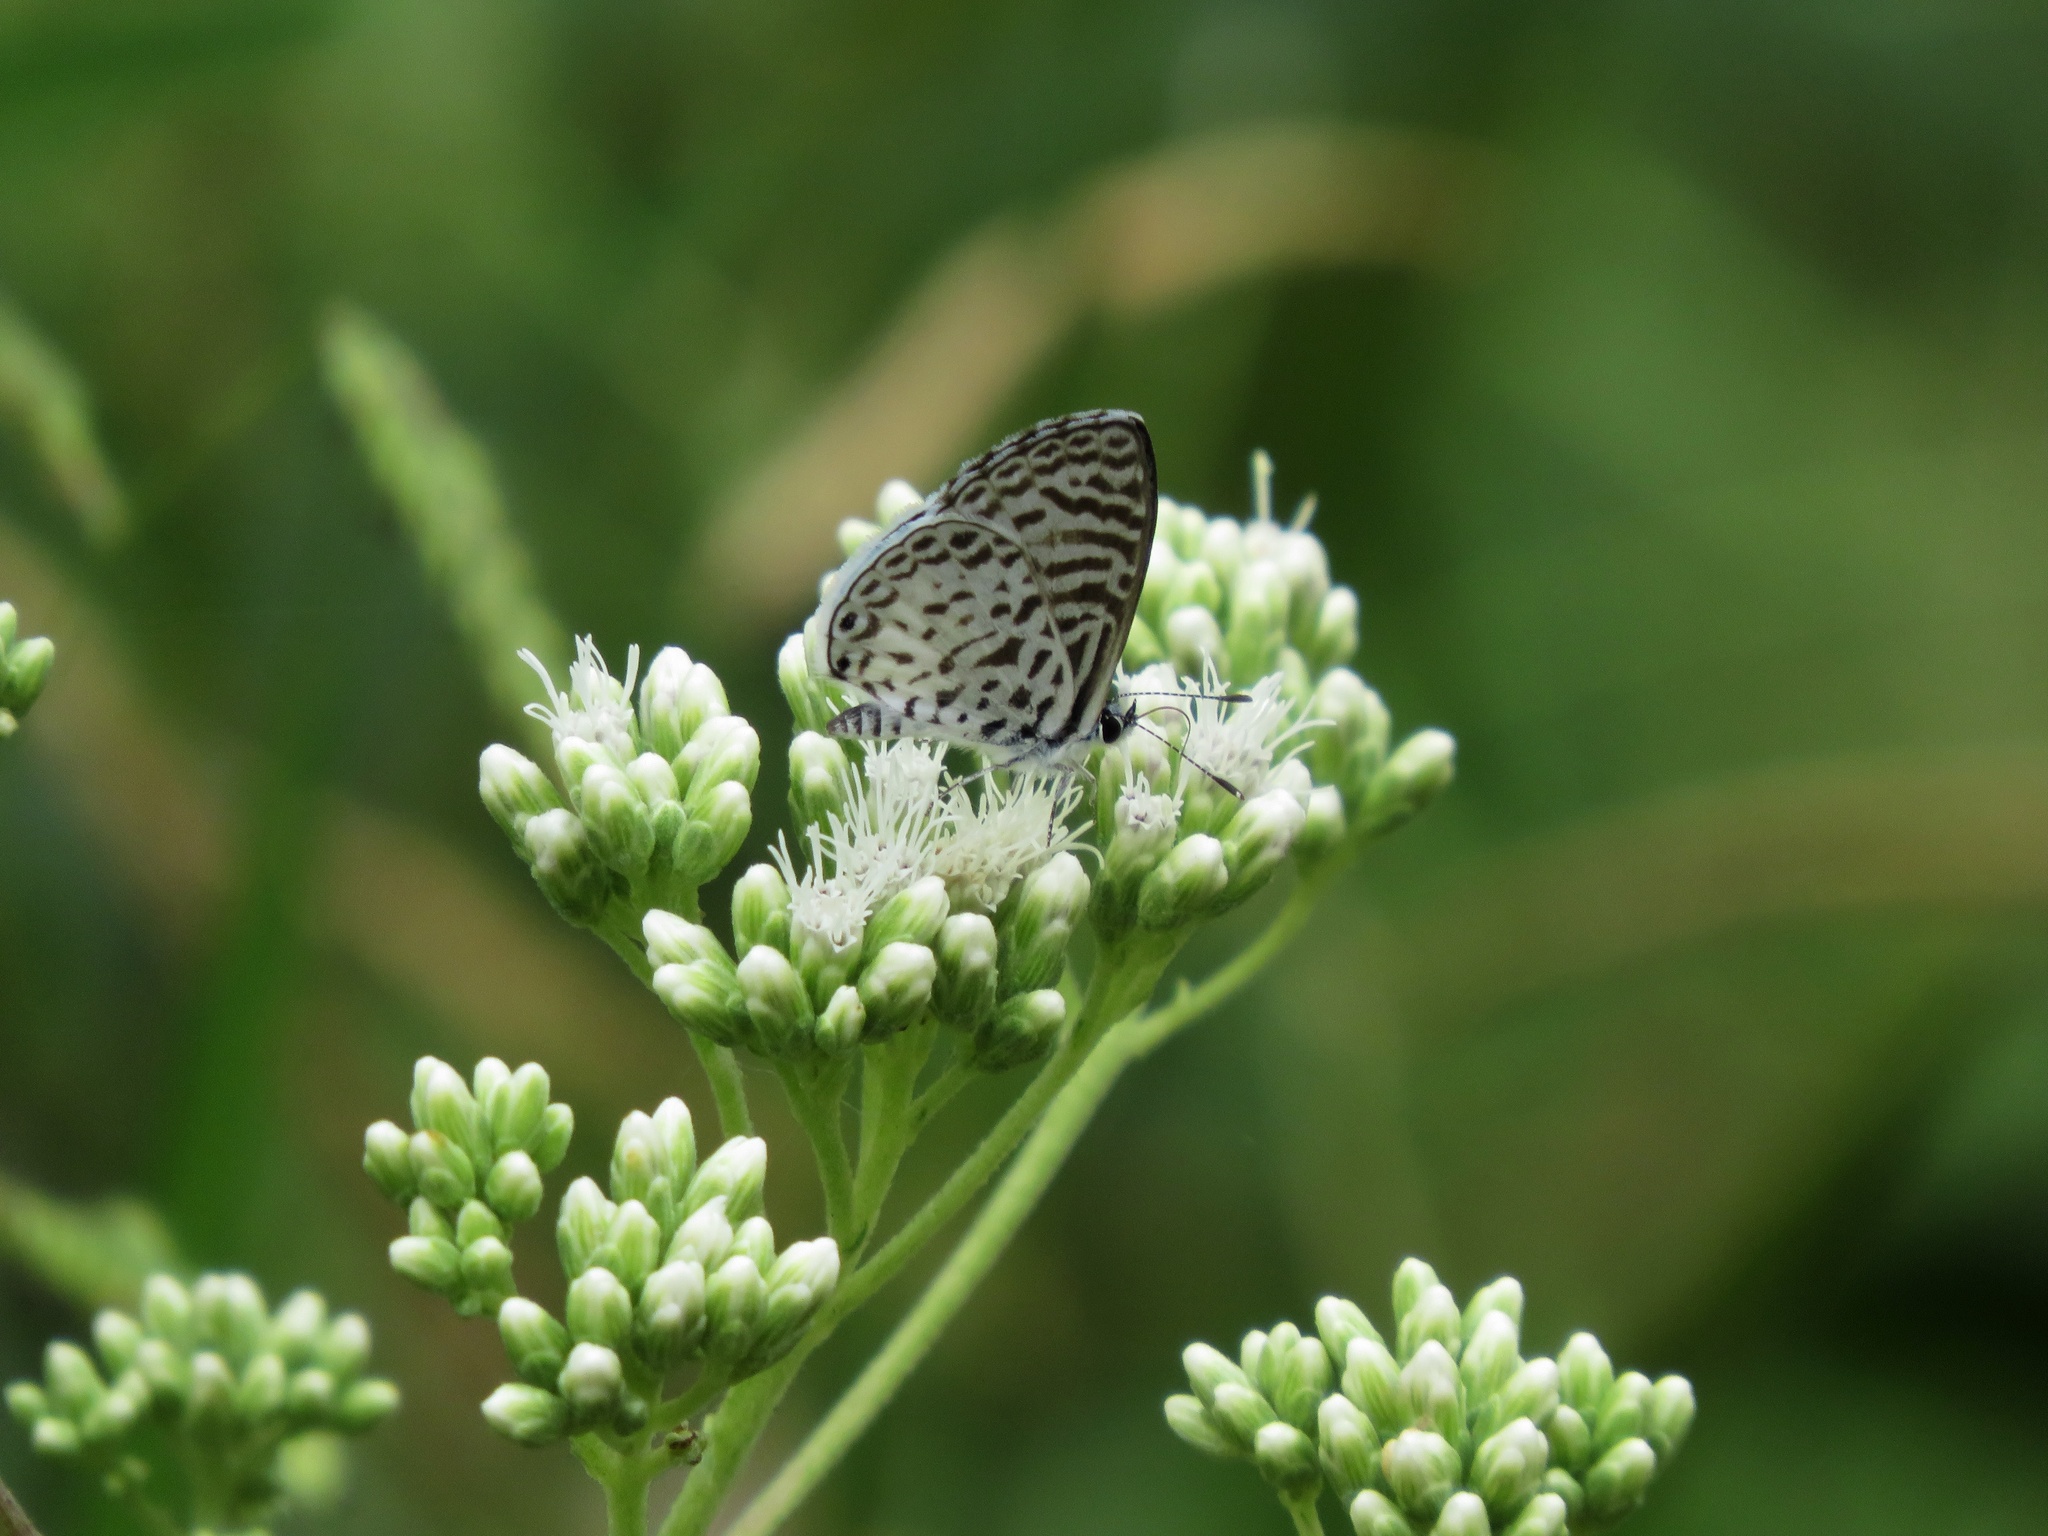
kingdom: Animalia
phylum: Arthropoda
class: Insecta
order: Lepidoptera
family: Lycaenidae
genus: Leptotes
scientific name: Leptotes cassius
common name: Cassius blue
